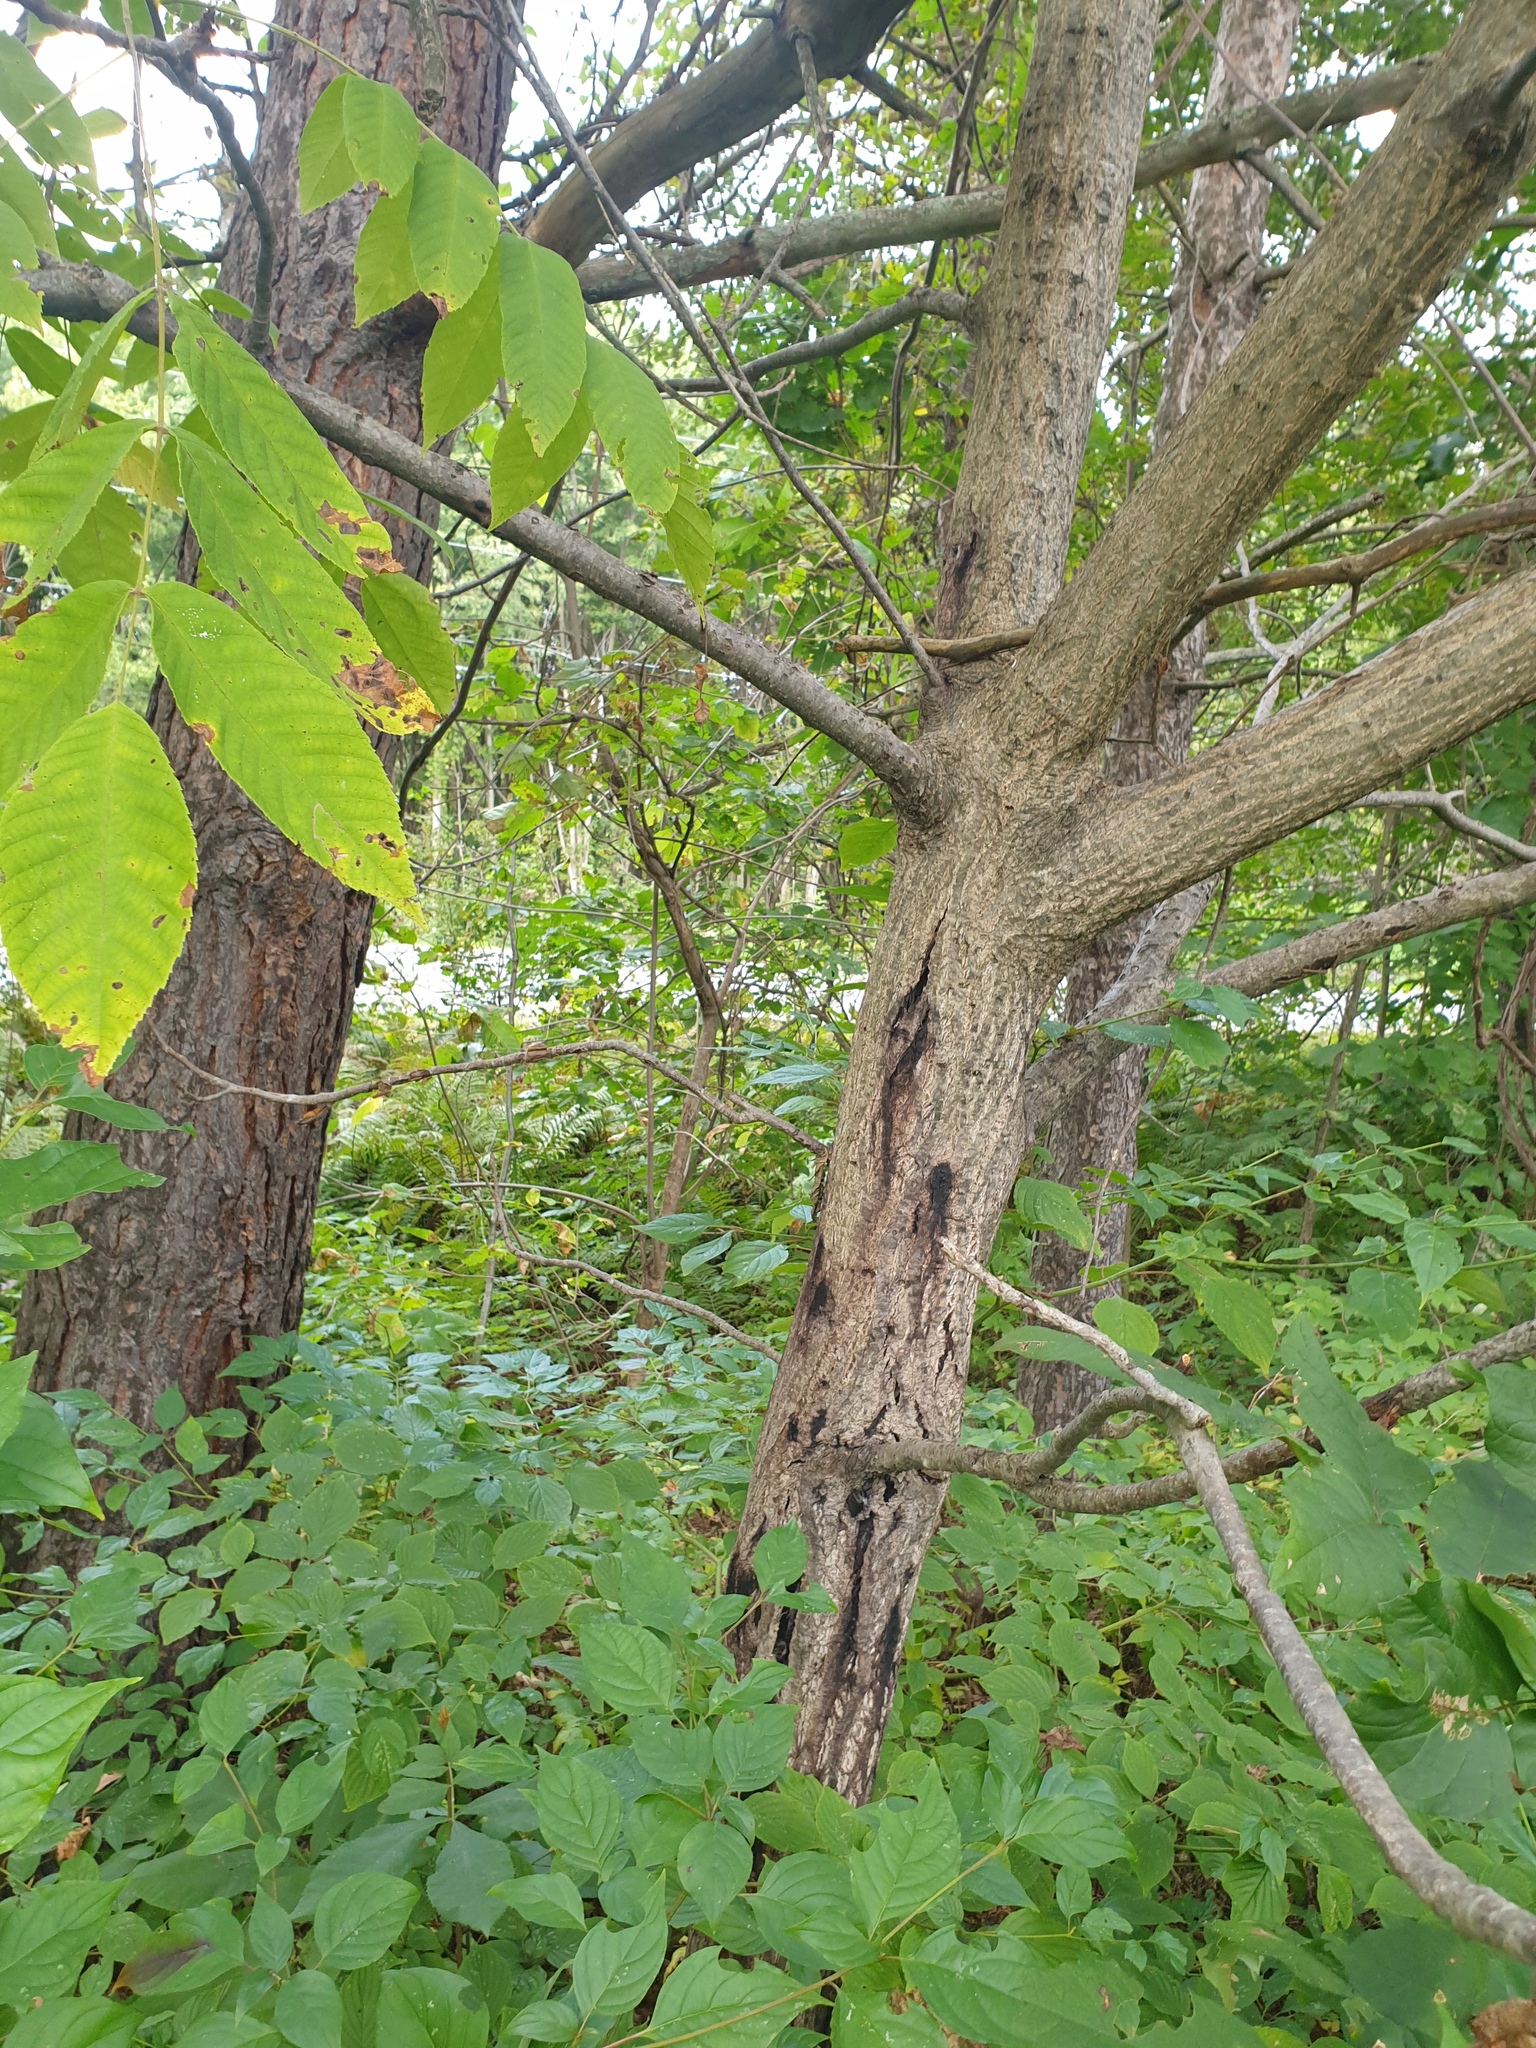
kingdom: Plantae
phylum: Tracheophyta
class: Magnoliopsida
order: Fagales
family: Juglandaceae
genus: Juglans
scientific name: Juglans cinerea
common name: Butternut
